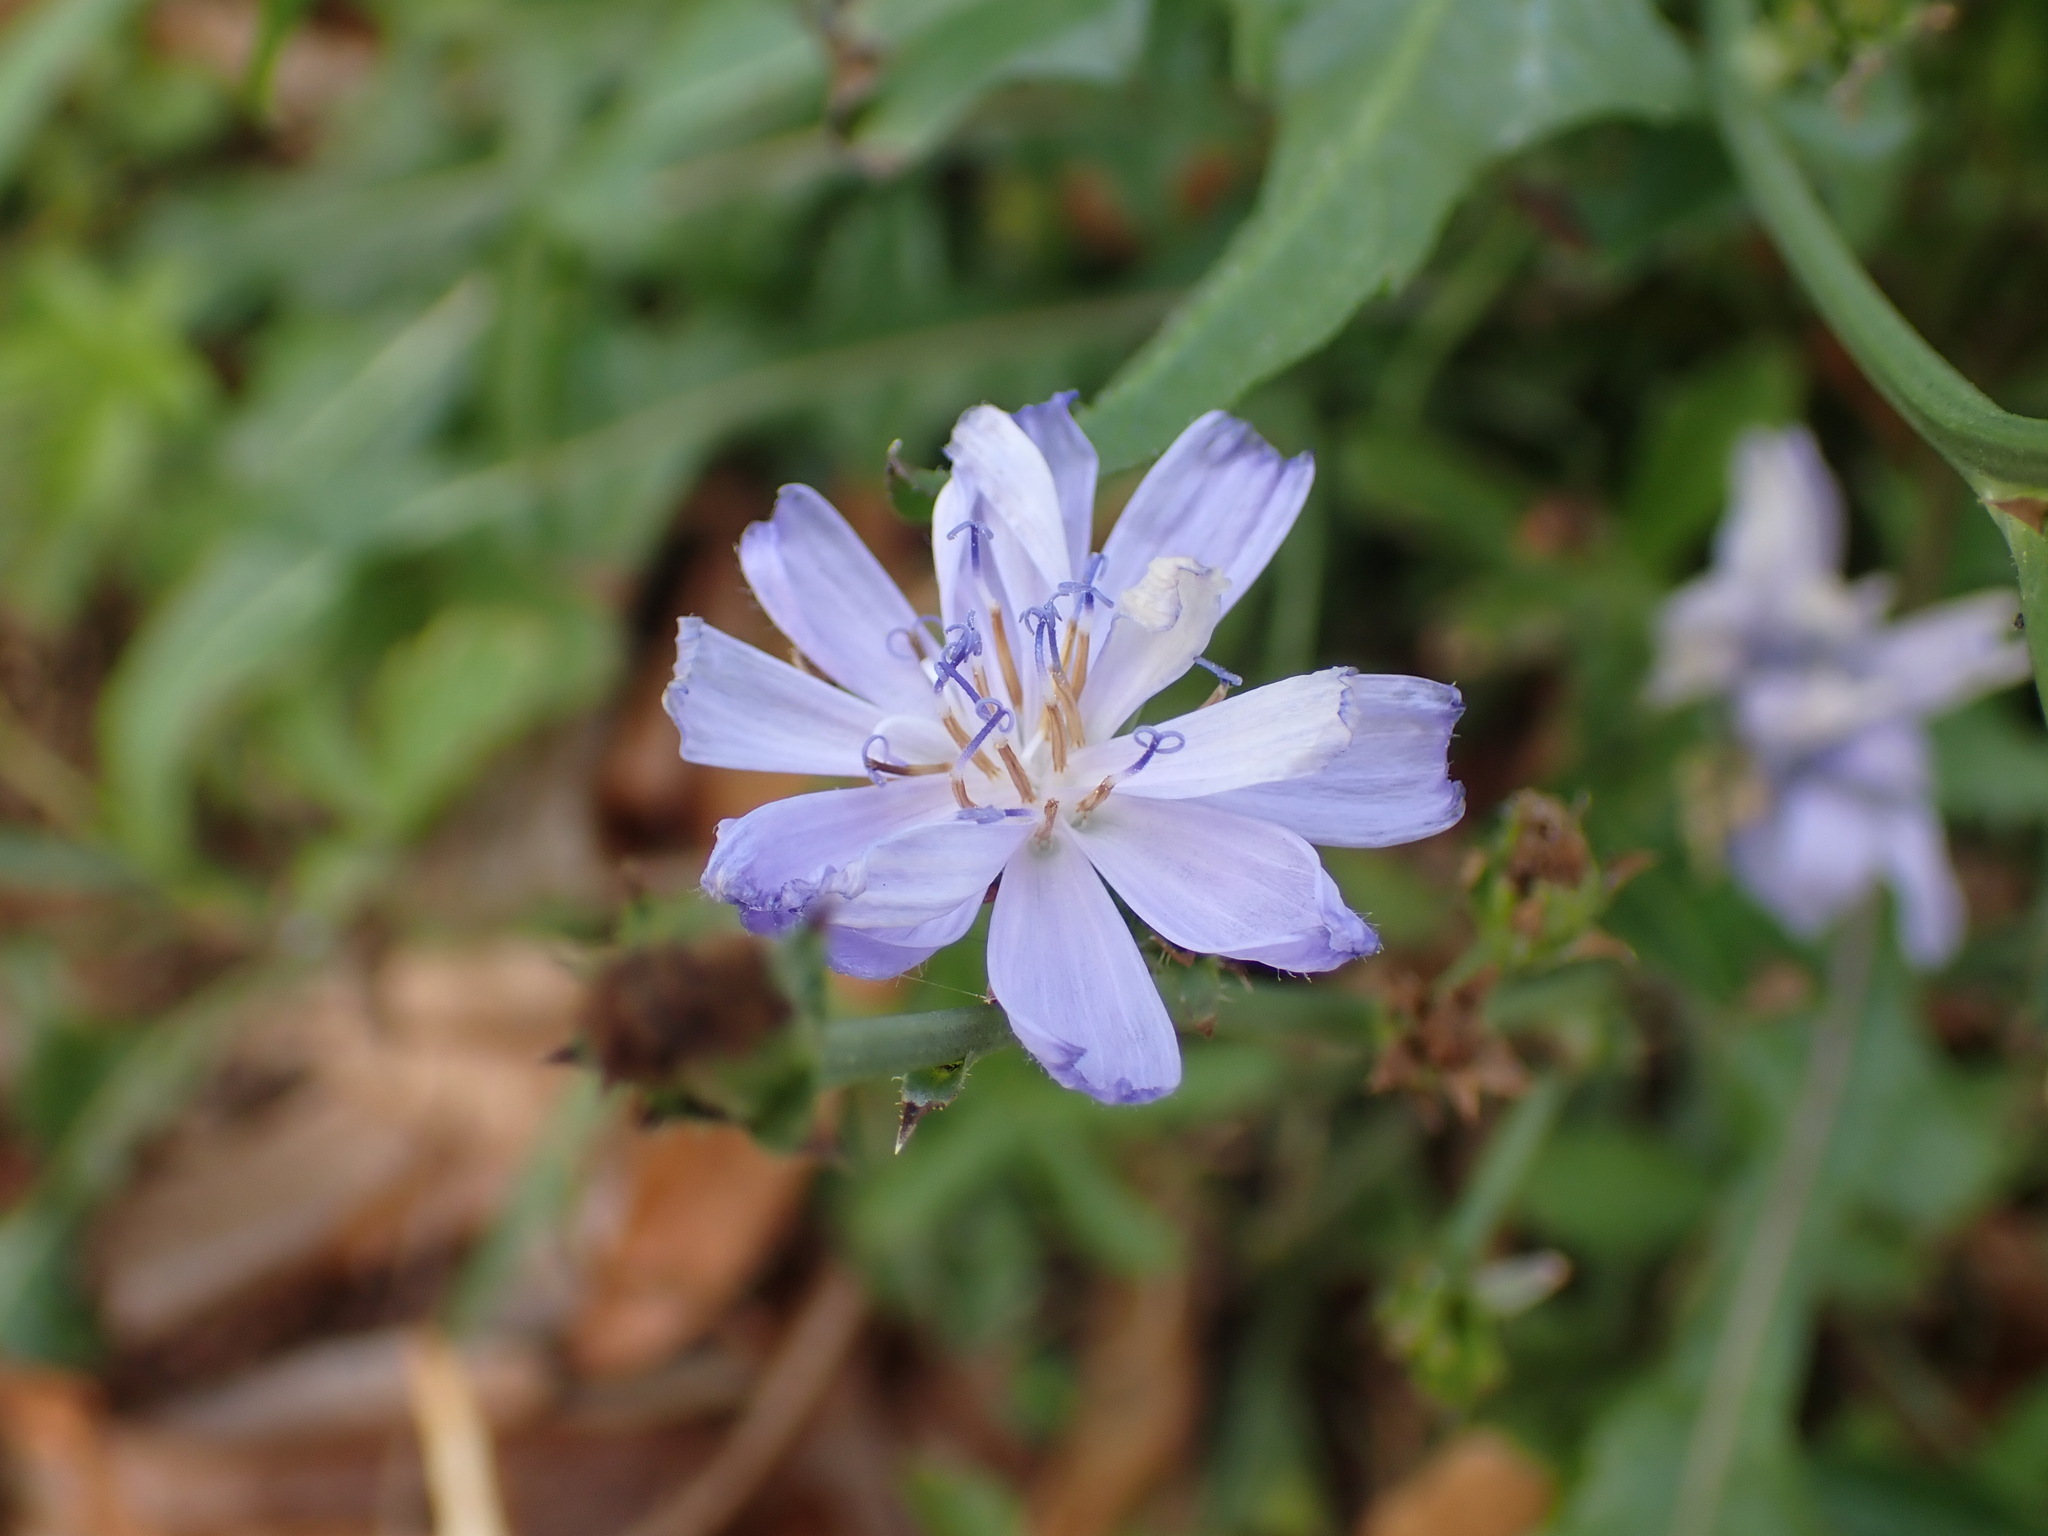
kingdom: Plantae
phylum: Tracheophyta
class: Magnoliopsida
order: Asterales
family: Asteraceae
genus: Cichorium
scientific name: Cichorium intybus
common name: Chicory
